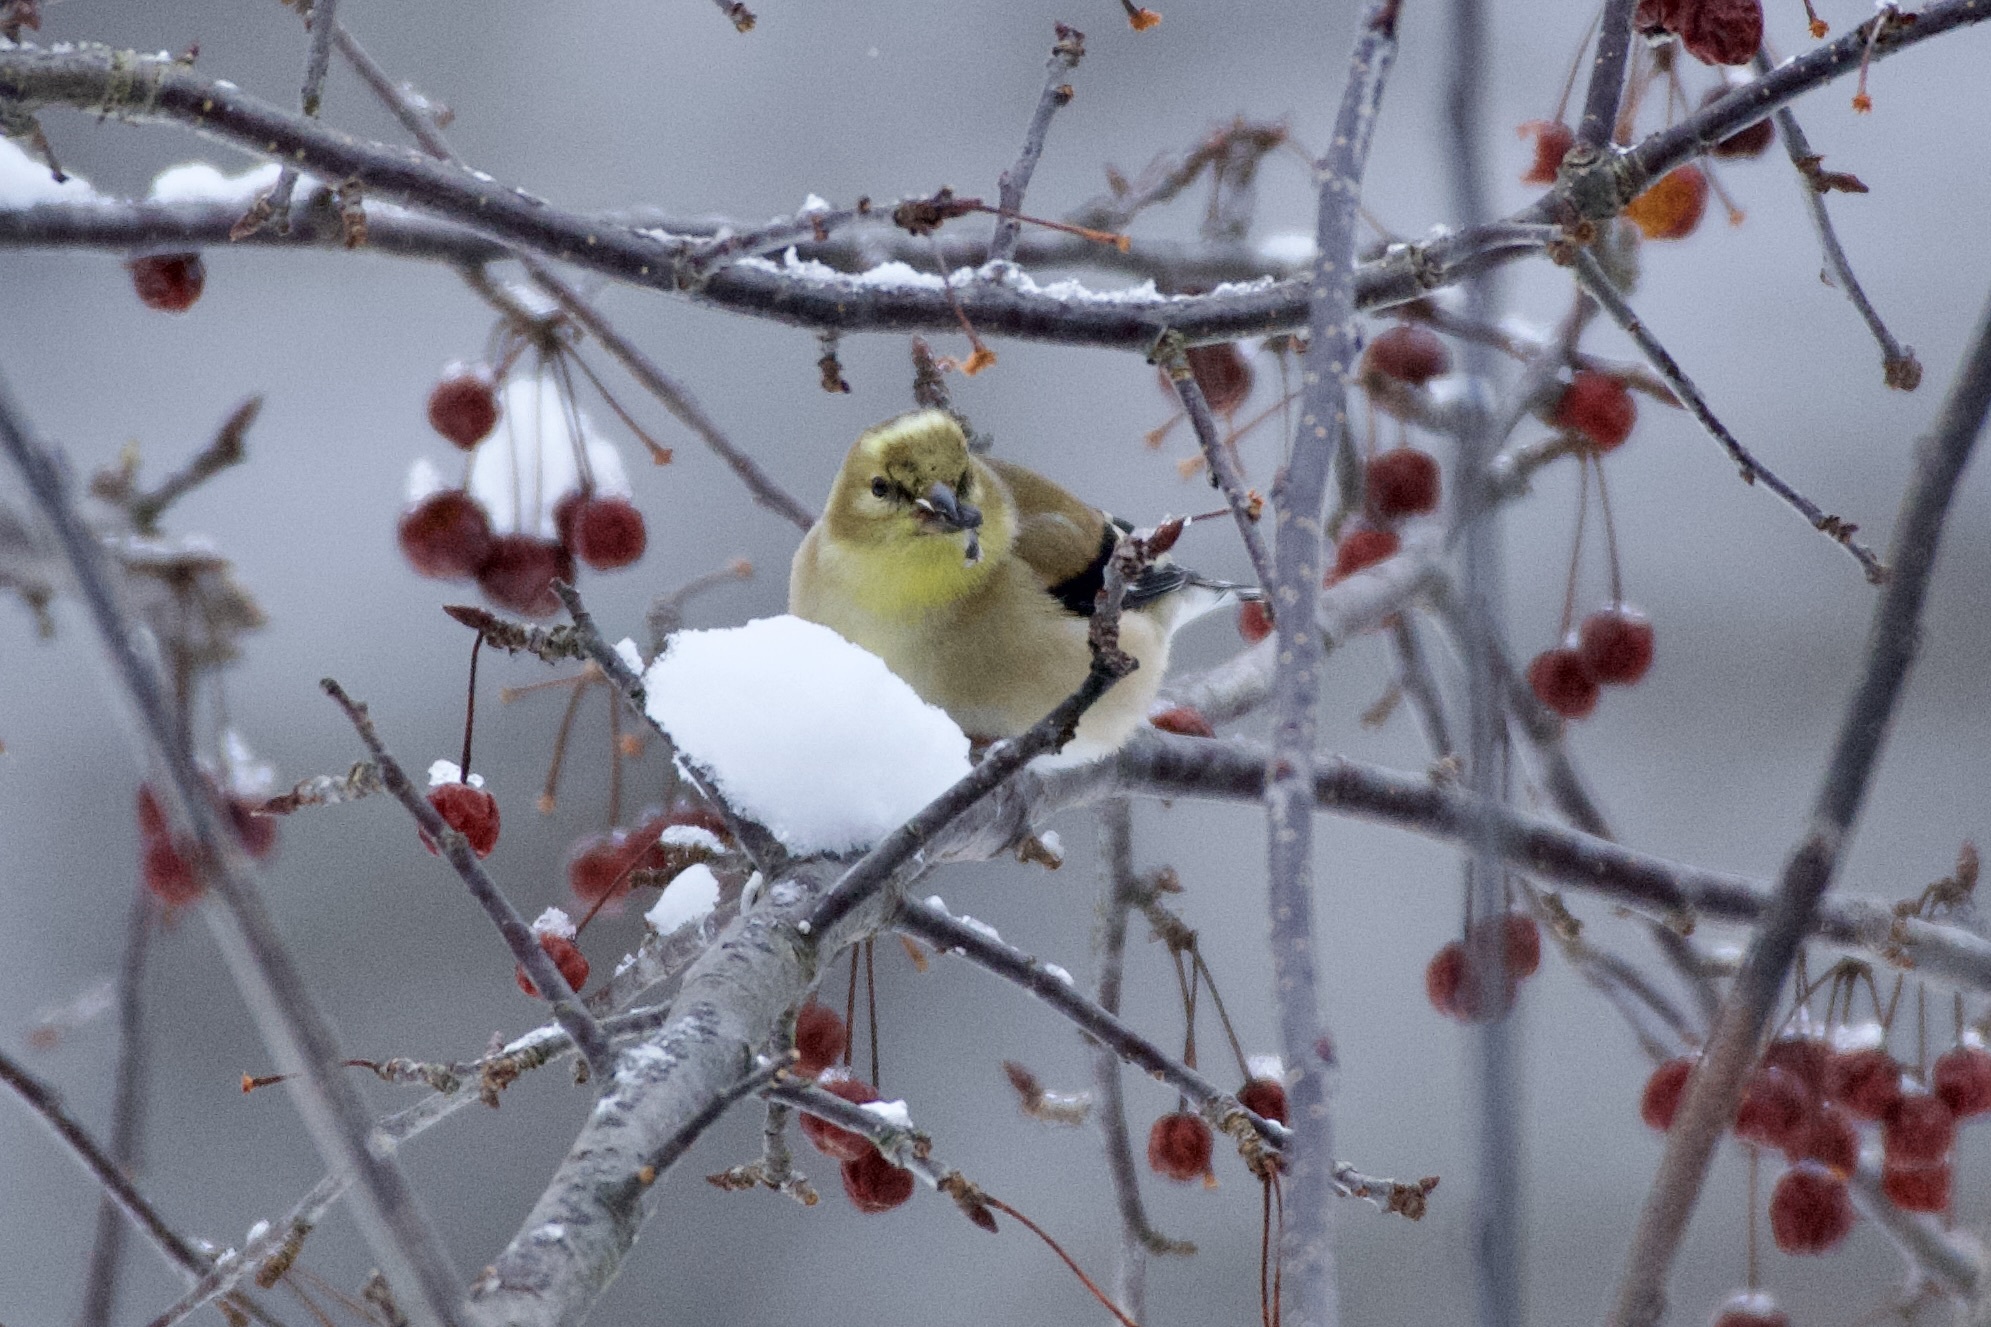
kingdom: Animalia
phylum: Chordata
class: Aves
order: Passeriformes
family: Fringillidae
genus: Spinus
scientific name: Spinus tristis
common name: American goldfinch
